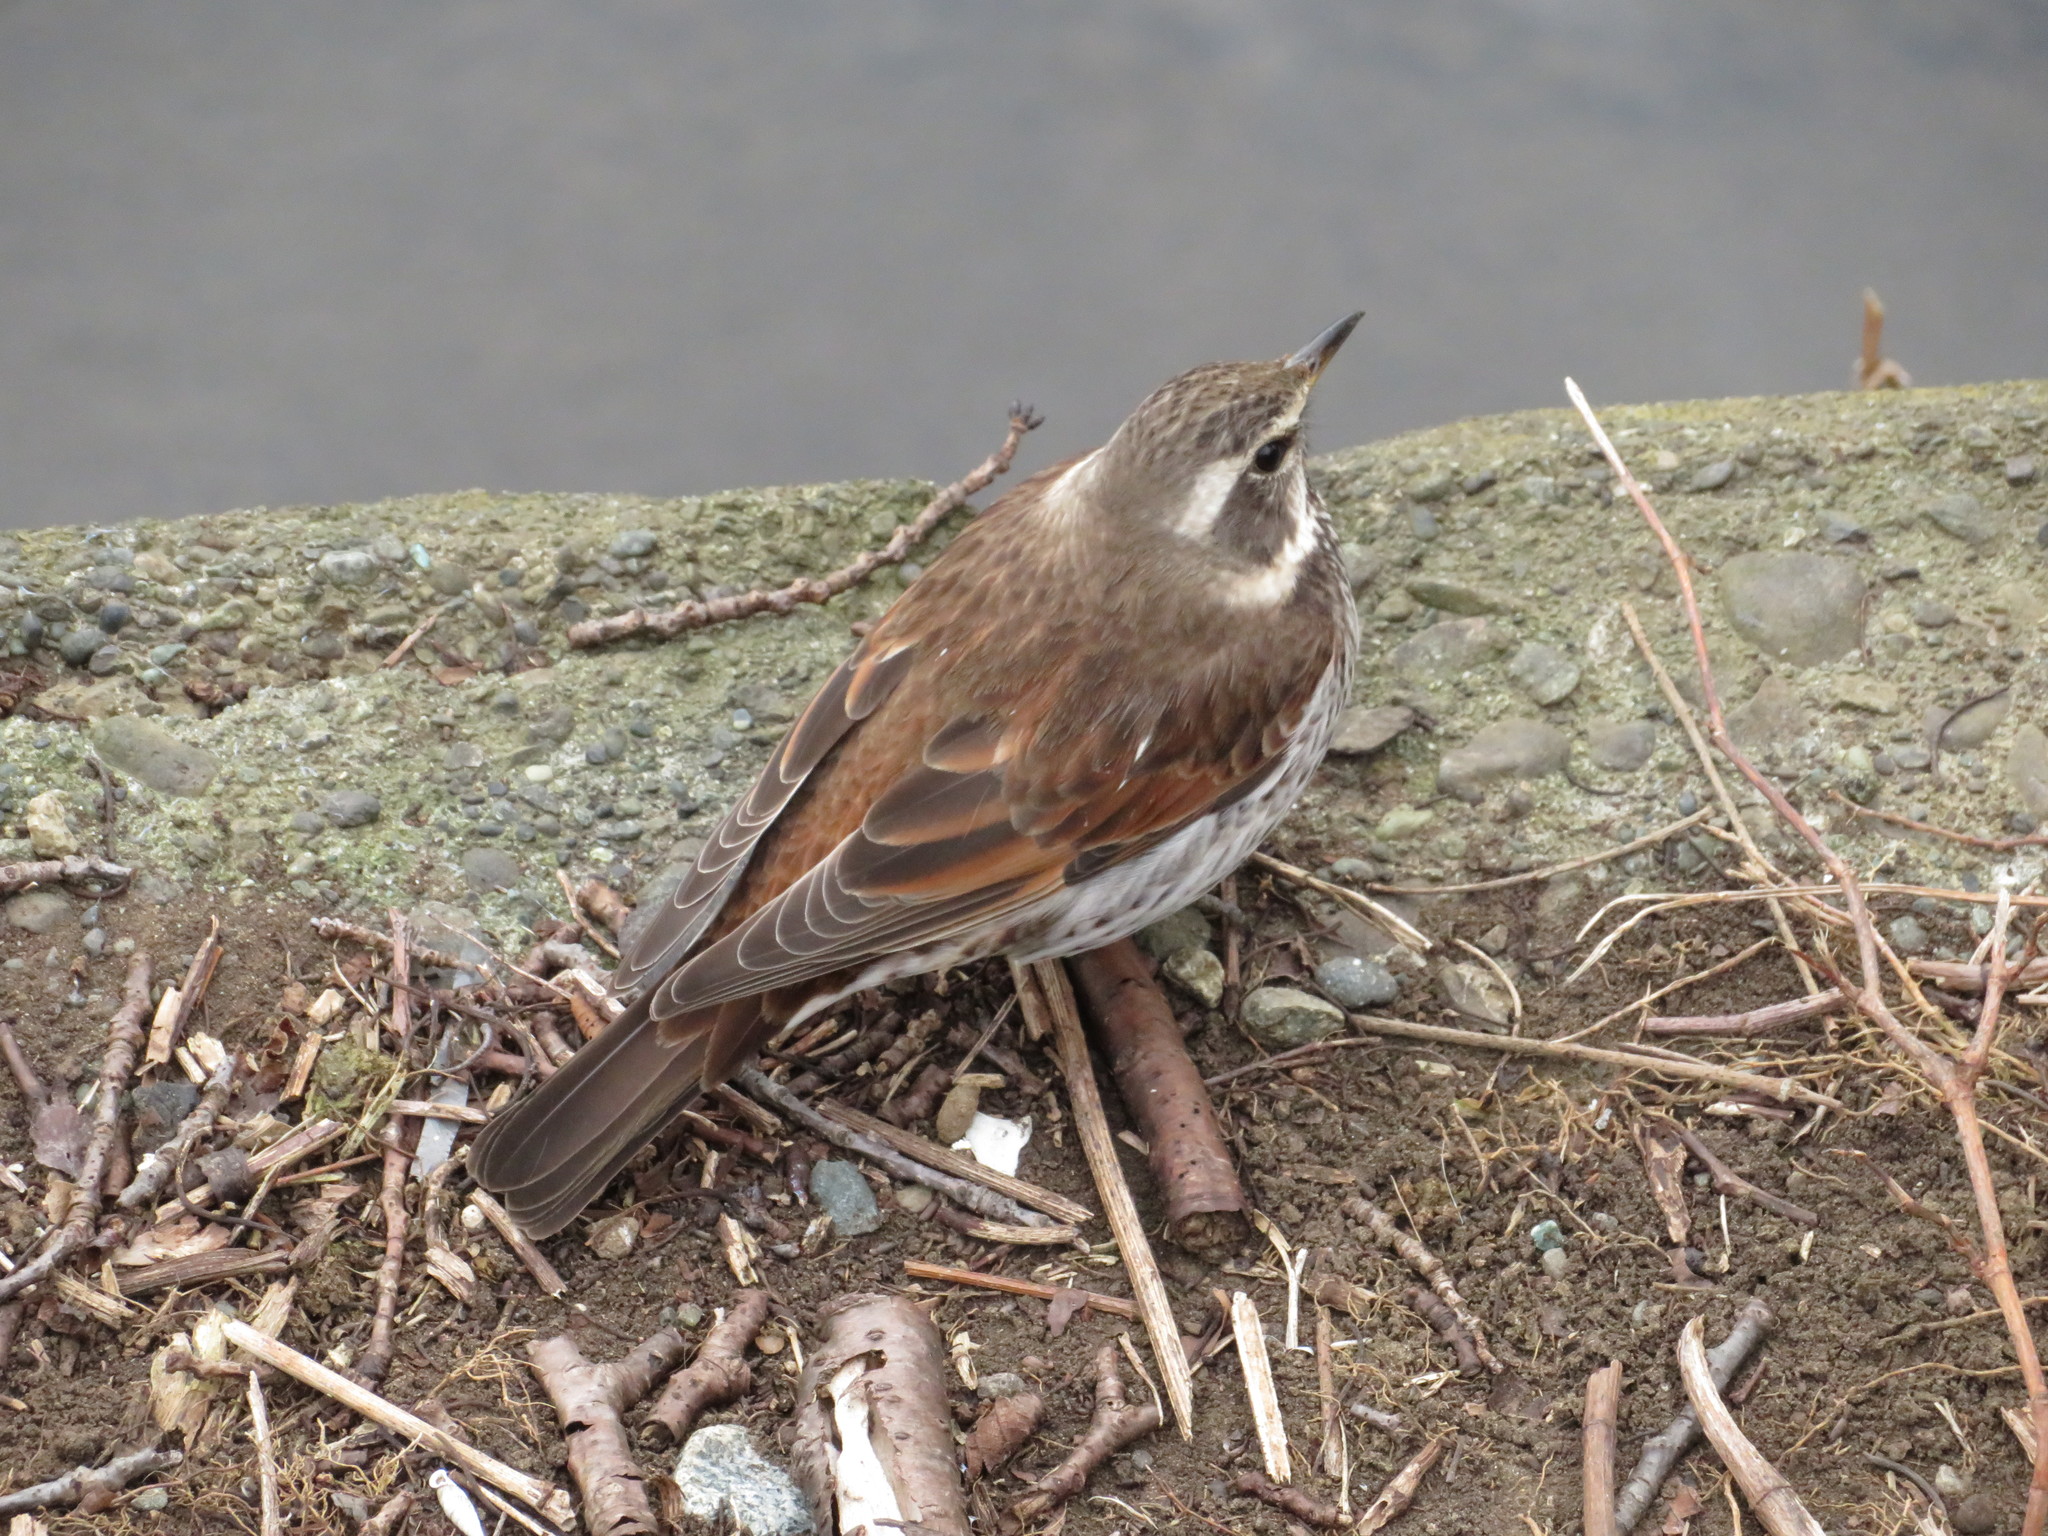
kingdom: Animalia
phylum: Chordata
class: Aves
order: Passeriformes
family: Turdidae
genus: Turdus
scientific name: Turdus eunomus
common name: Dusky thrush
